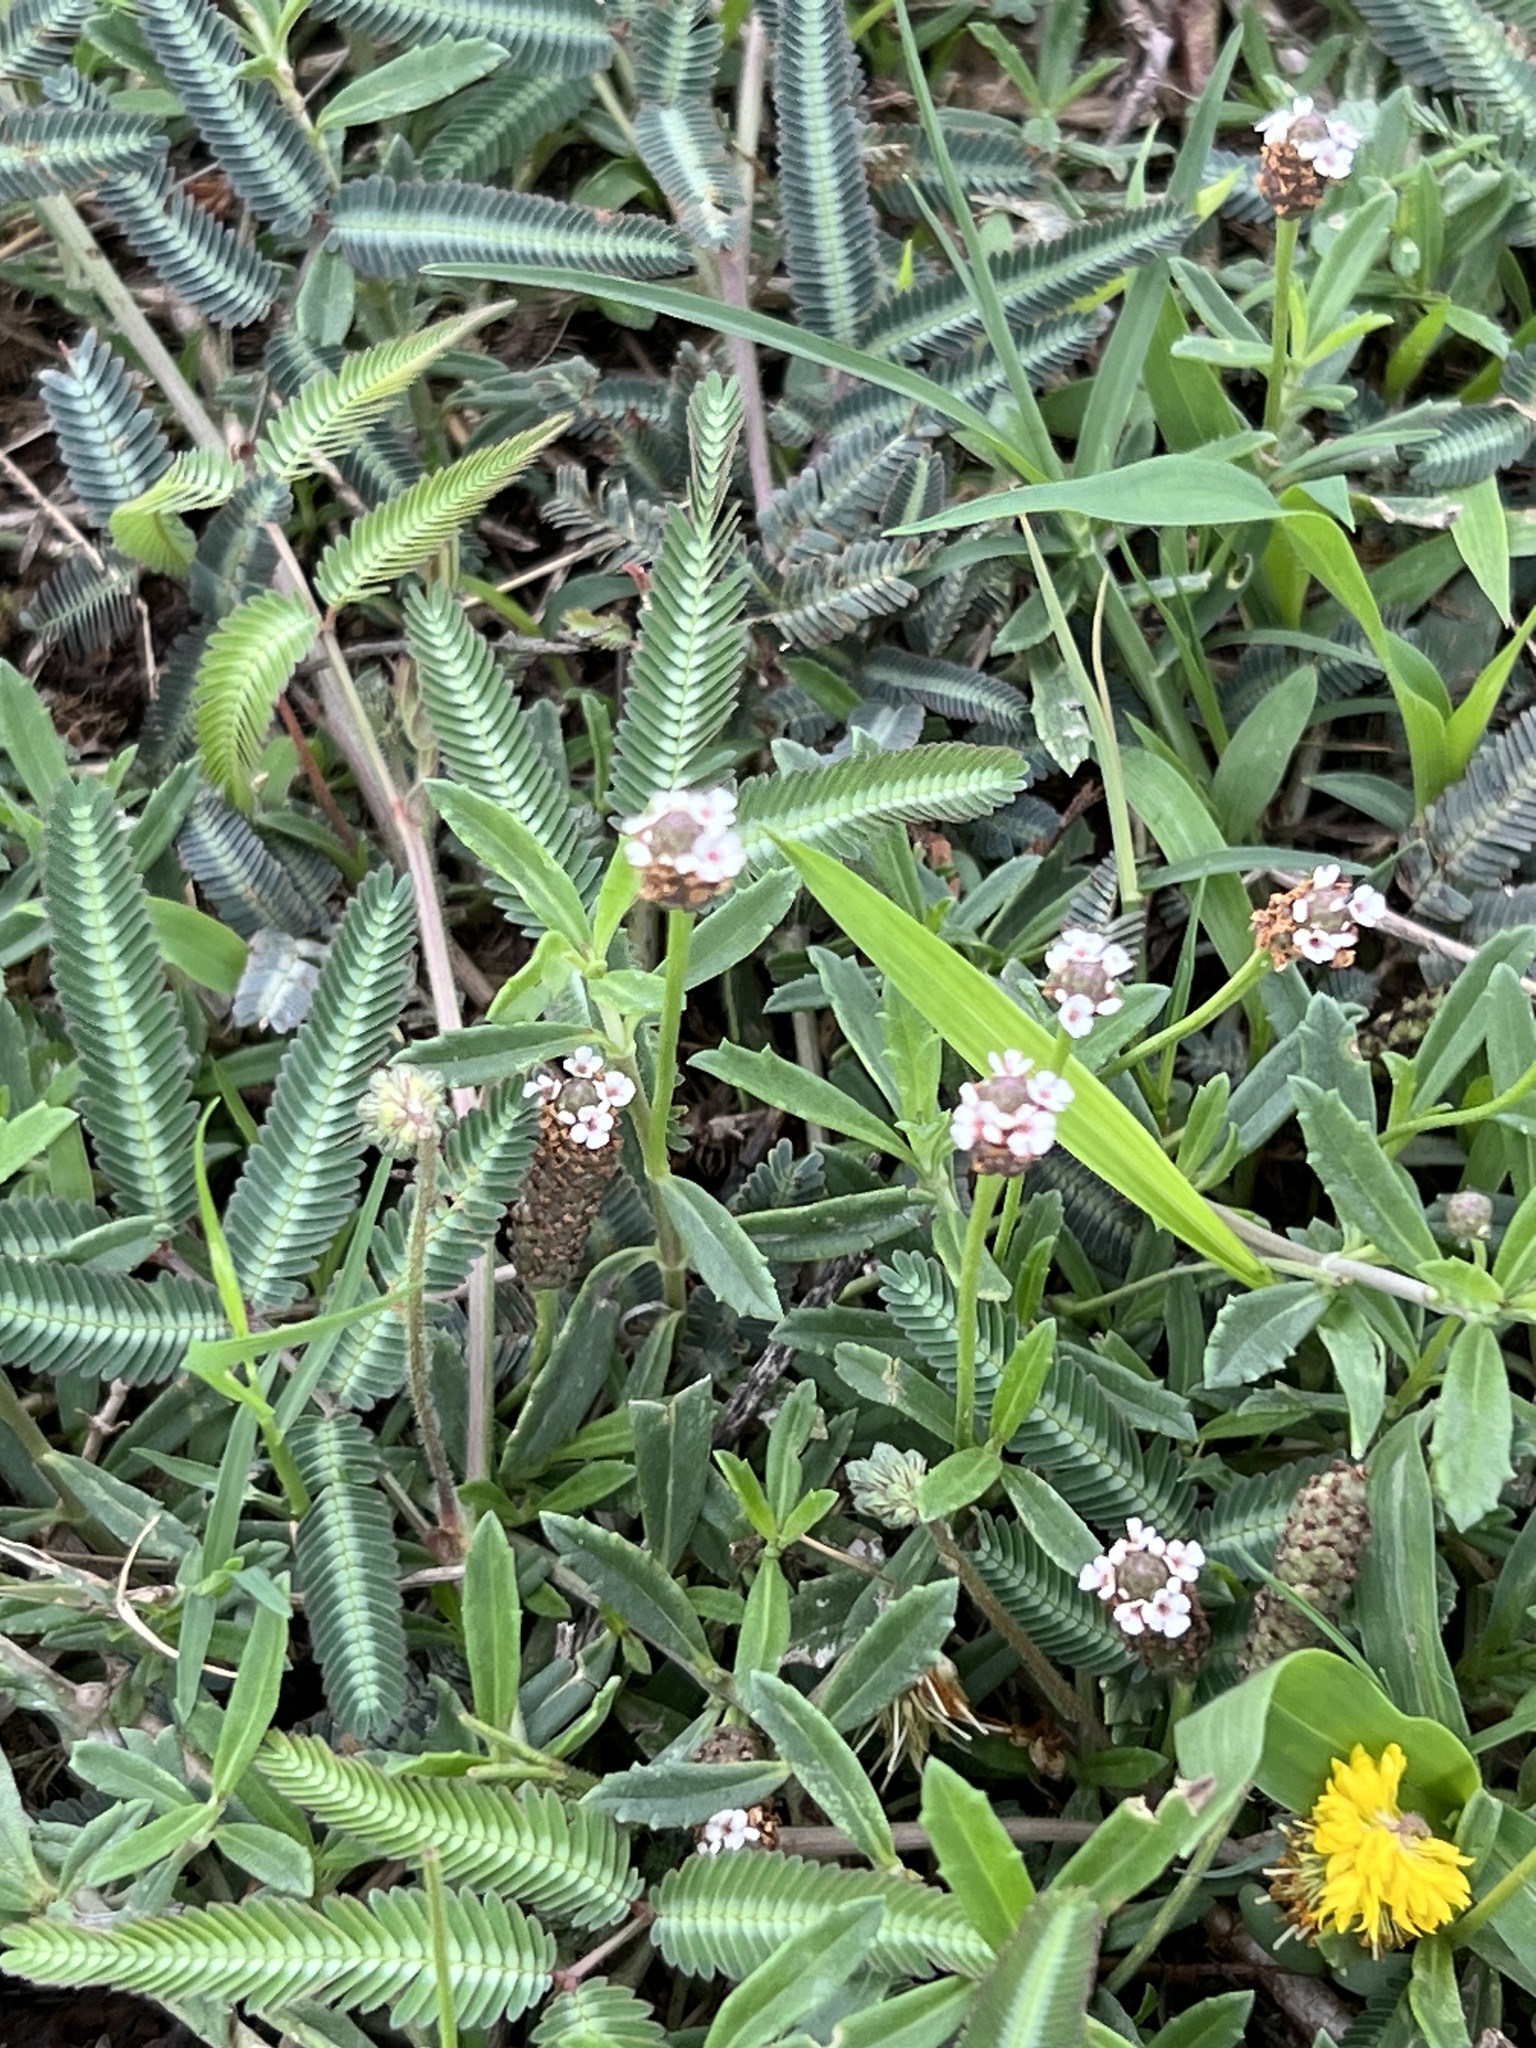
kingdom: Plantae
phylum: Tracheophyta
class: Magnoliopsida
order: Lamiales
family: Verbenaceae
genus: Phyla
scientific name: Phyla nodiflora
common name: Frogfruit
